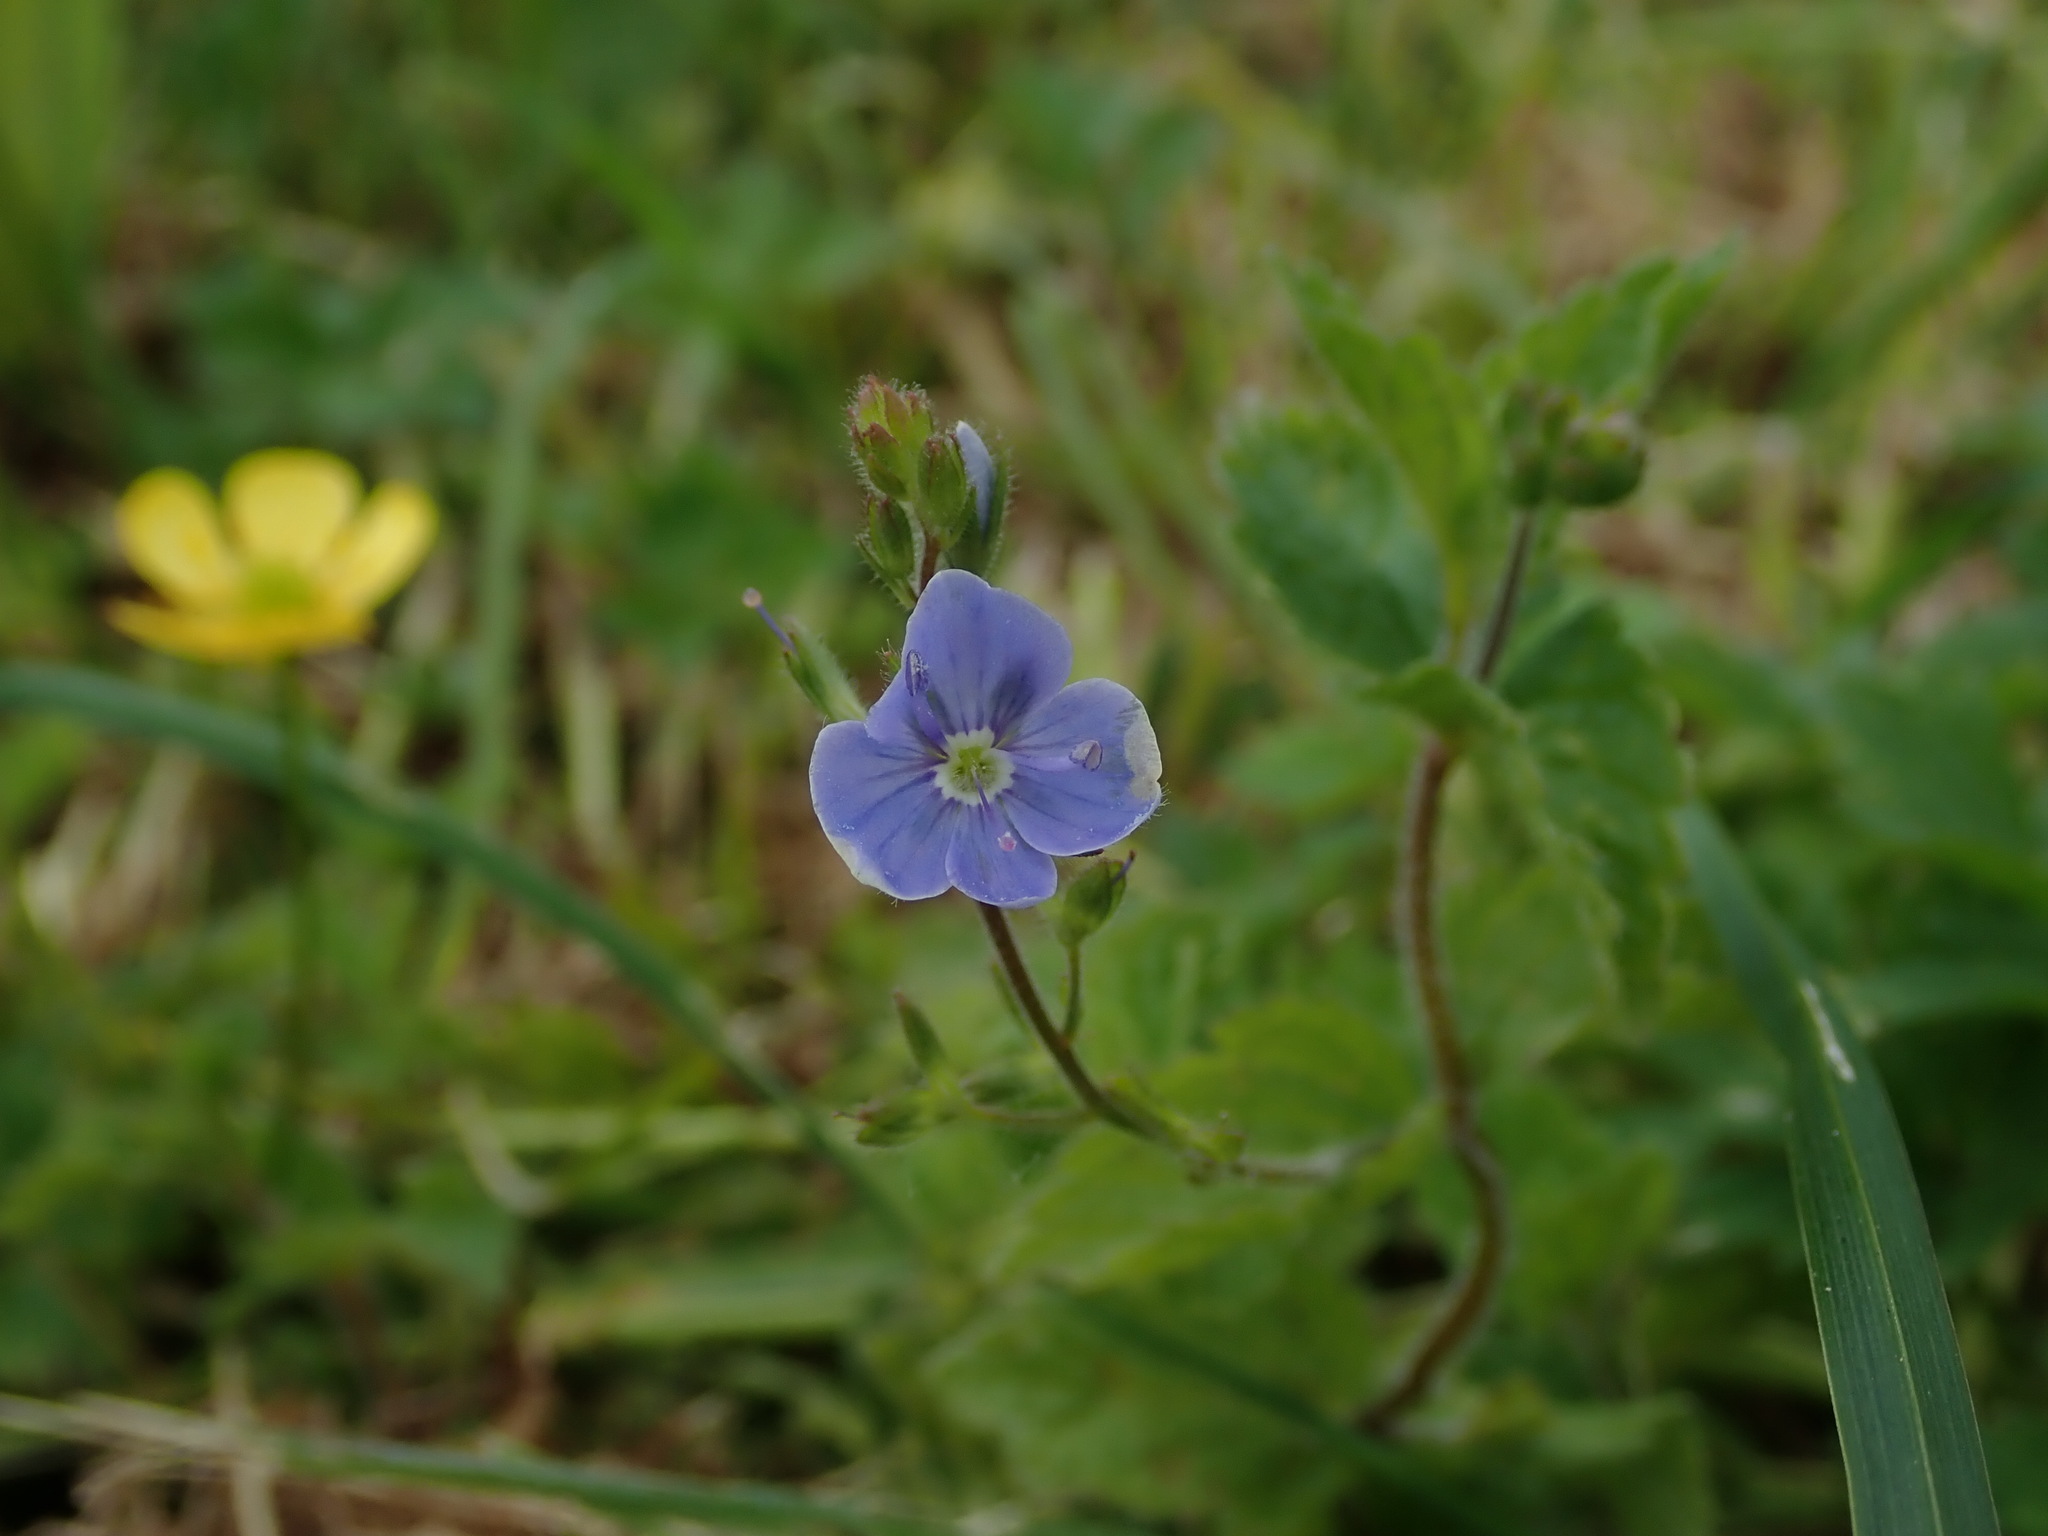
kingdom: Plantae
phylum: Tracheophyta
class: Magnoliopsida
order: Lamiales
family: Plantaginaceae
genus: Veronica
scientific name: Veronica chamaedrys
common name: Germander speedwell
